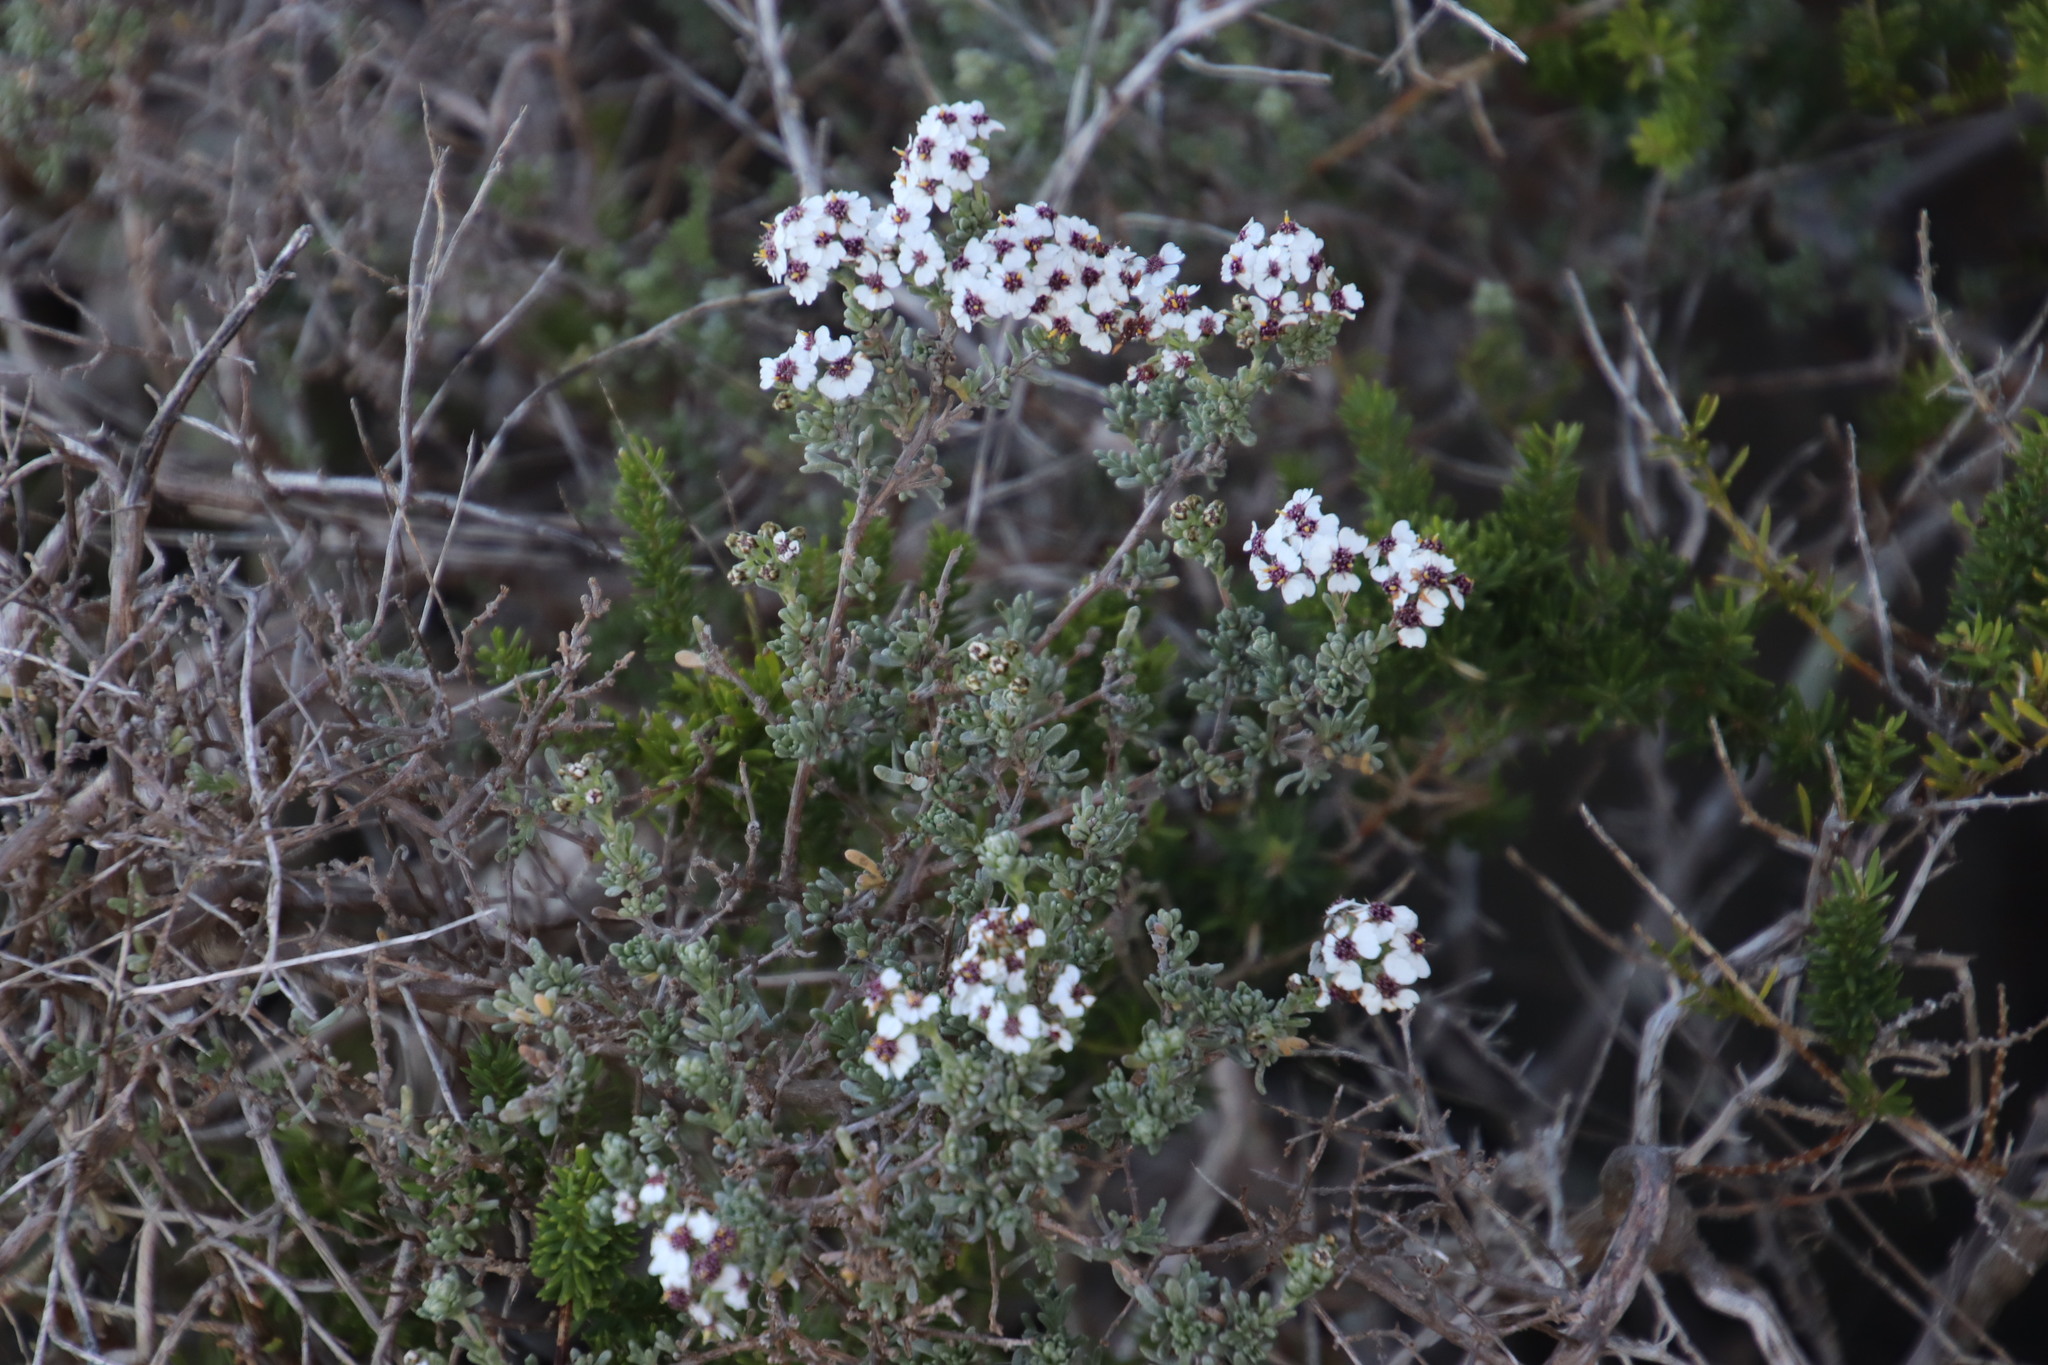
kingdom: Plantae
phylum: Tracheophyta
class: Magnoliopsida
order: Asterales
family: Asteraceae
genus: Eriocephalus
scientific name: Eriocephalus africanus
